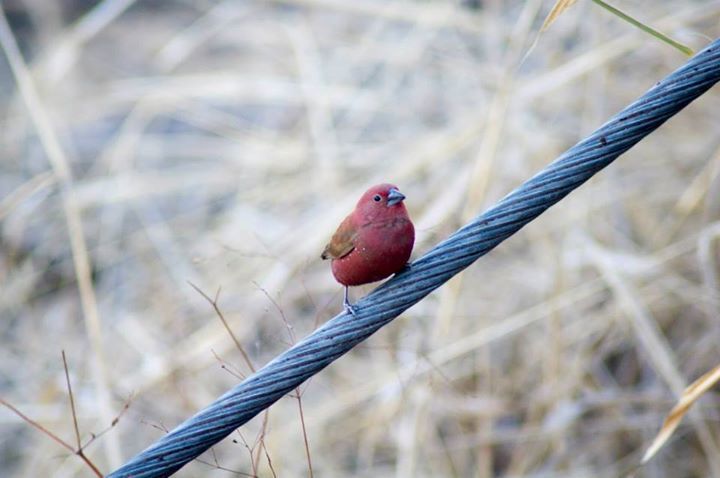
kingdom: Animalia
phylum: Chordata
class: Aves
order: Passeriformes
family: Estrildidae
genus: Lagonosticta
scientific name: Lagonosticta rhodopareia
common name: Jameson's firefinch
